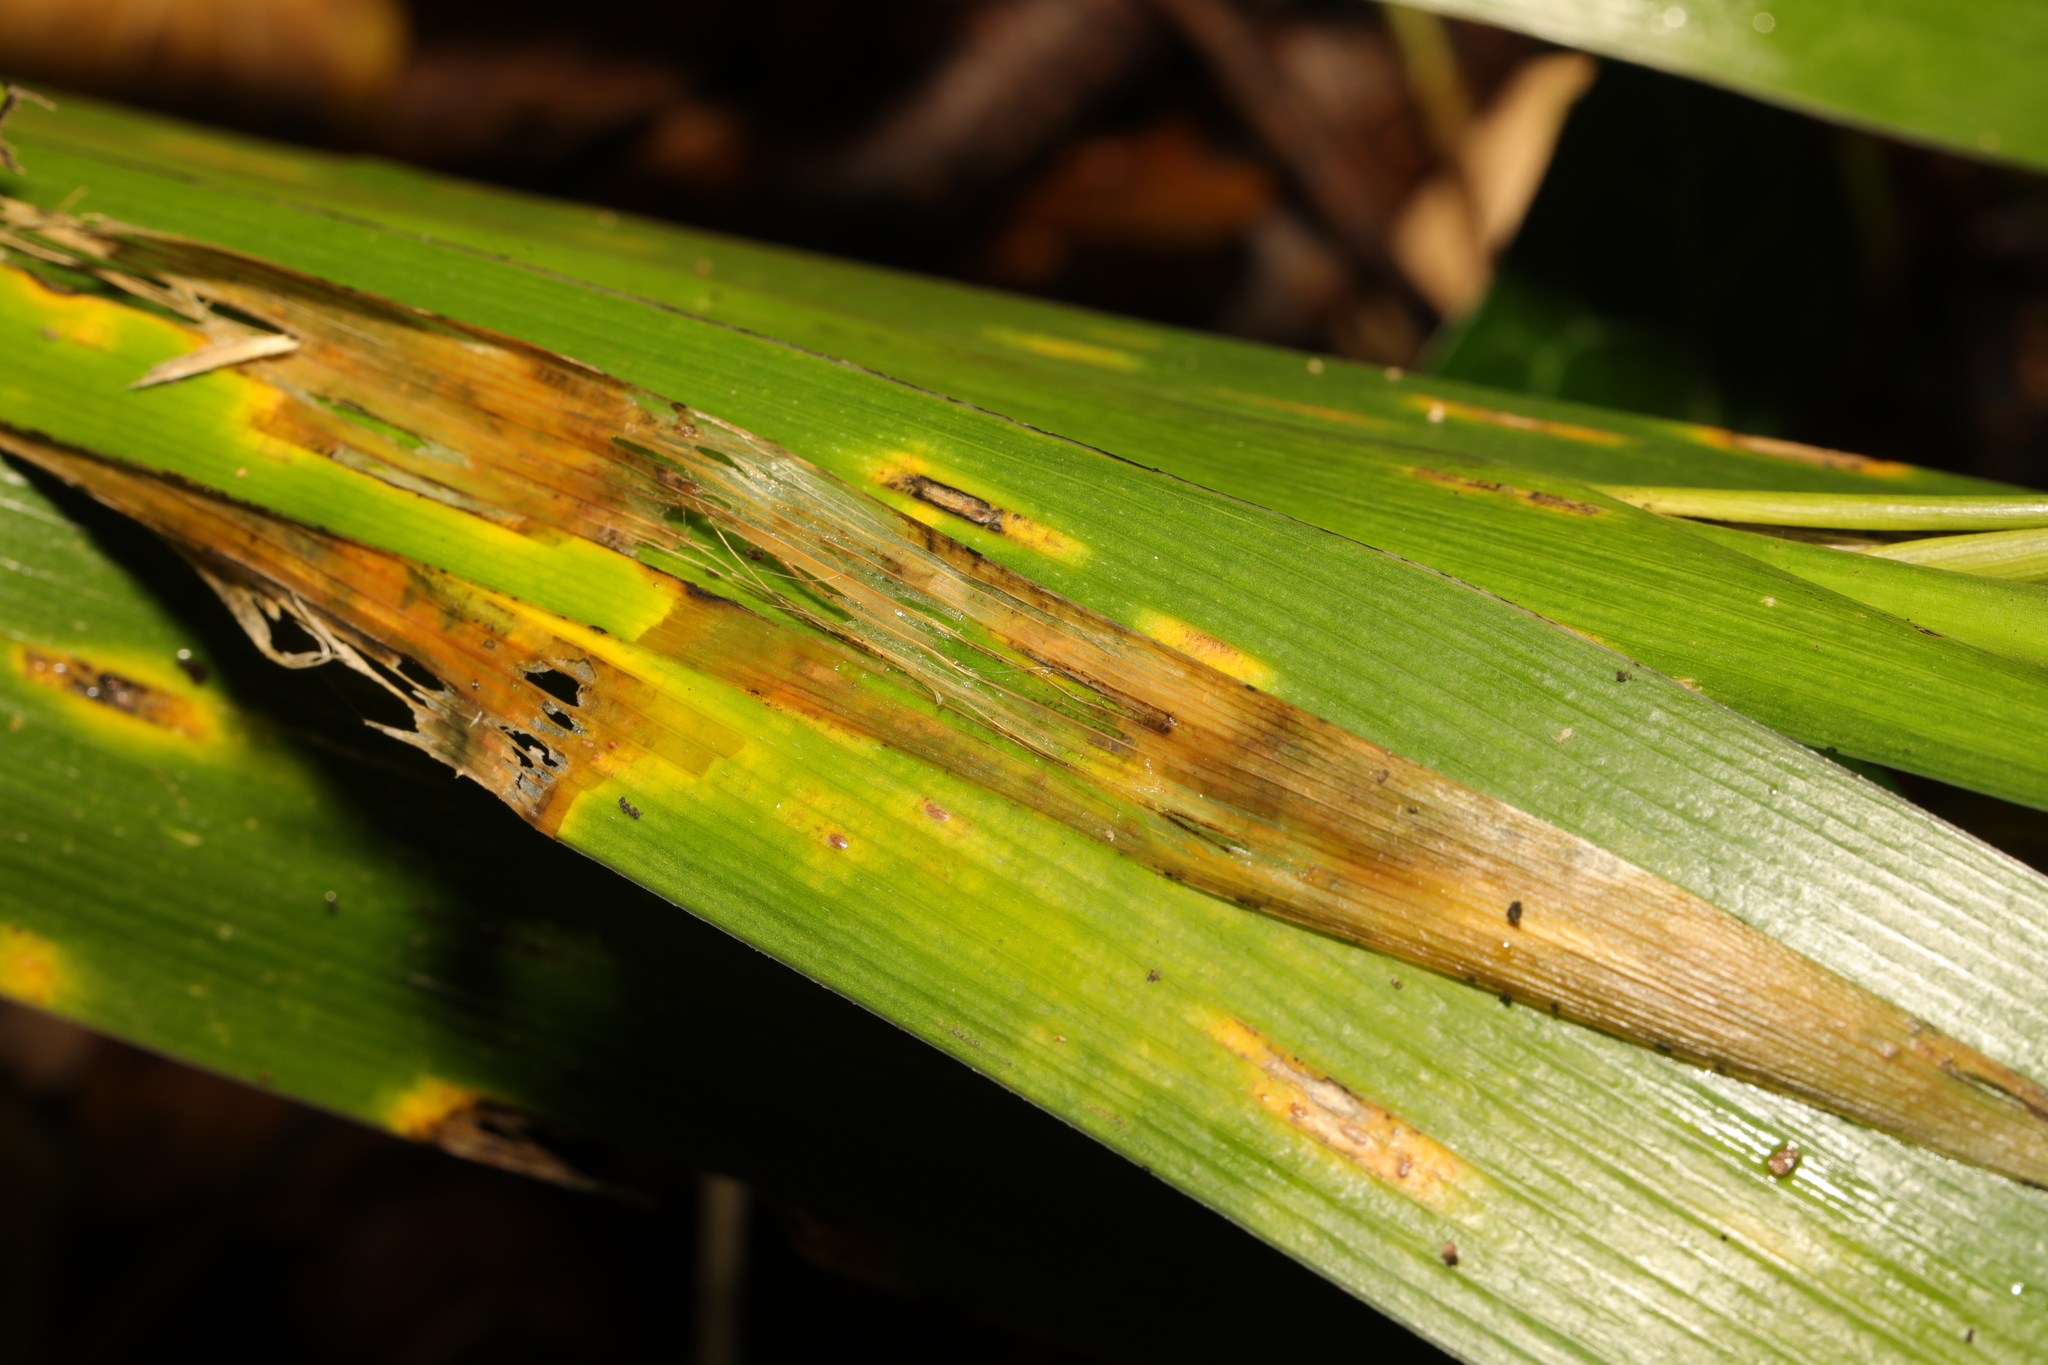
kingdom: Fungi
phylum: Basidiomycota
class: Pucciniomycetes
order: Pucciniales
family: Pucciniaceae
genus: Puccinia
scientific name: Puccinia iridis
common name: Iris rust
